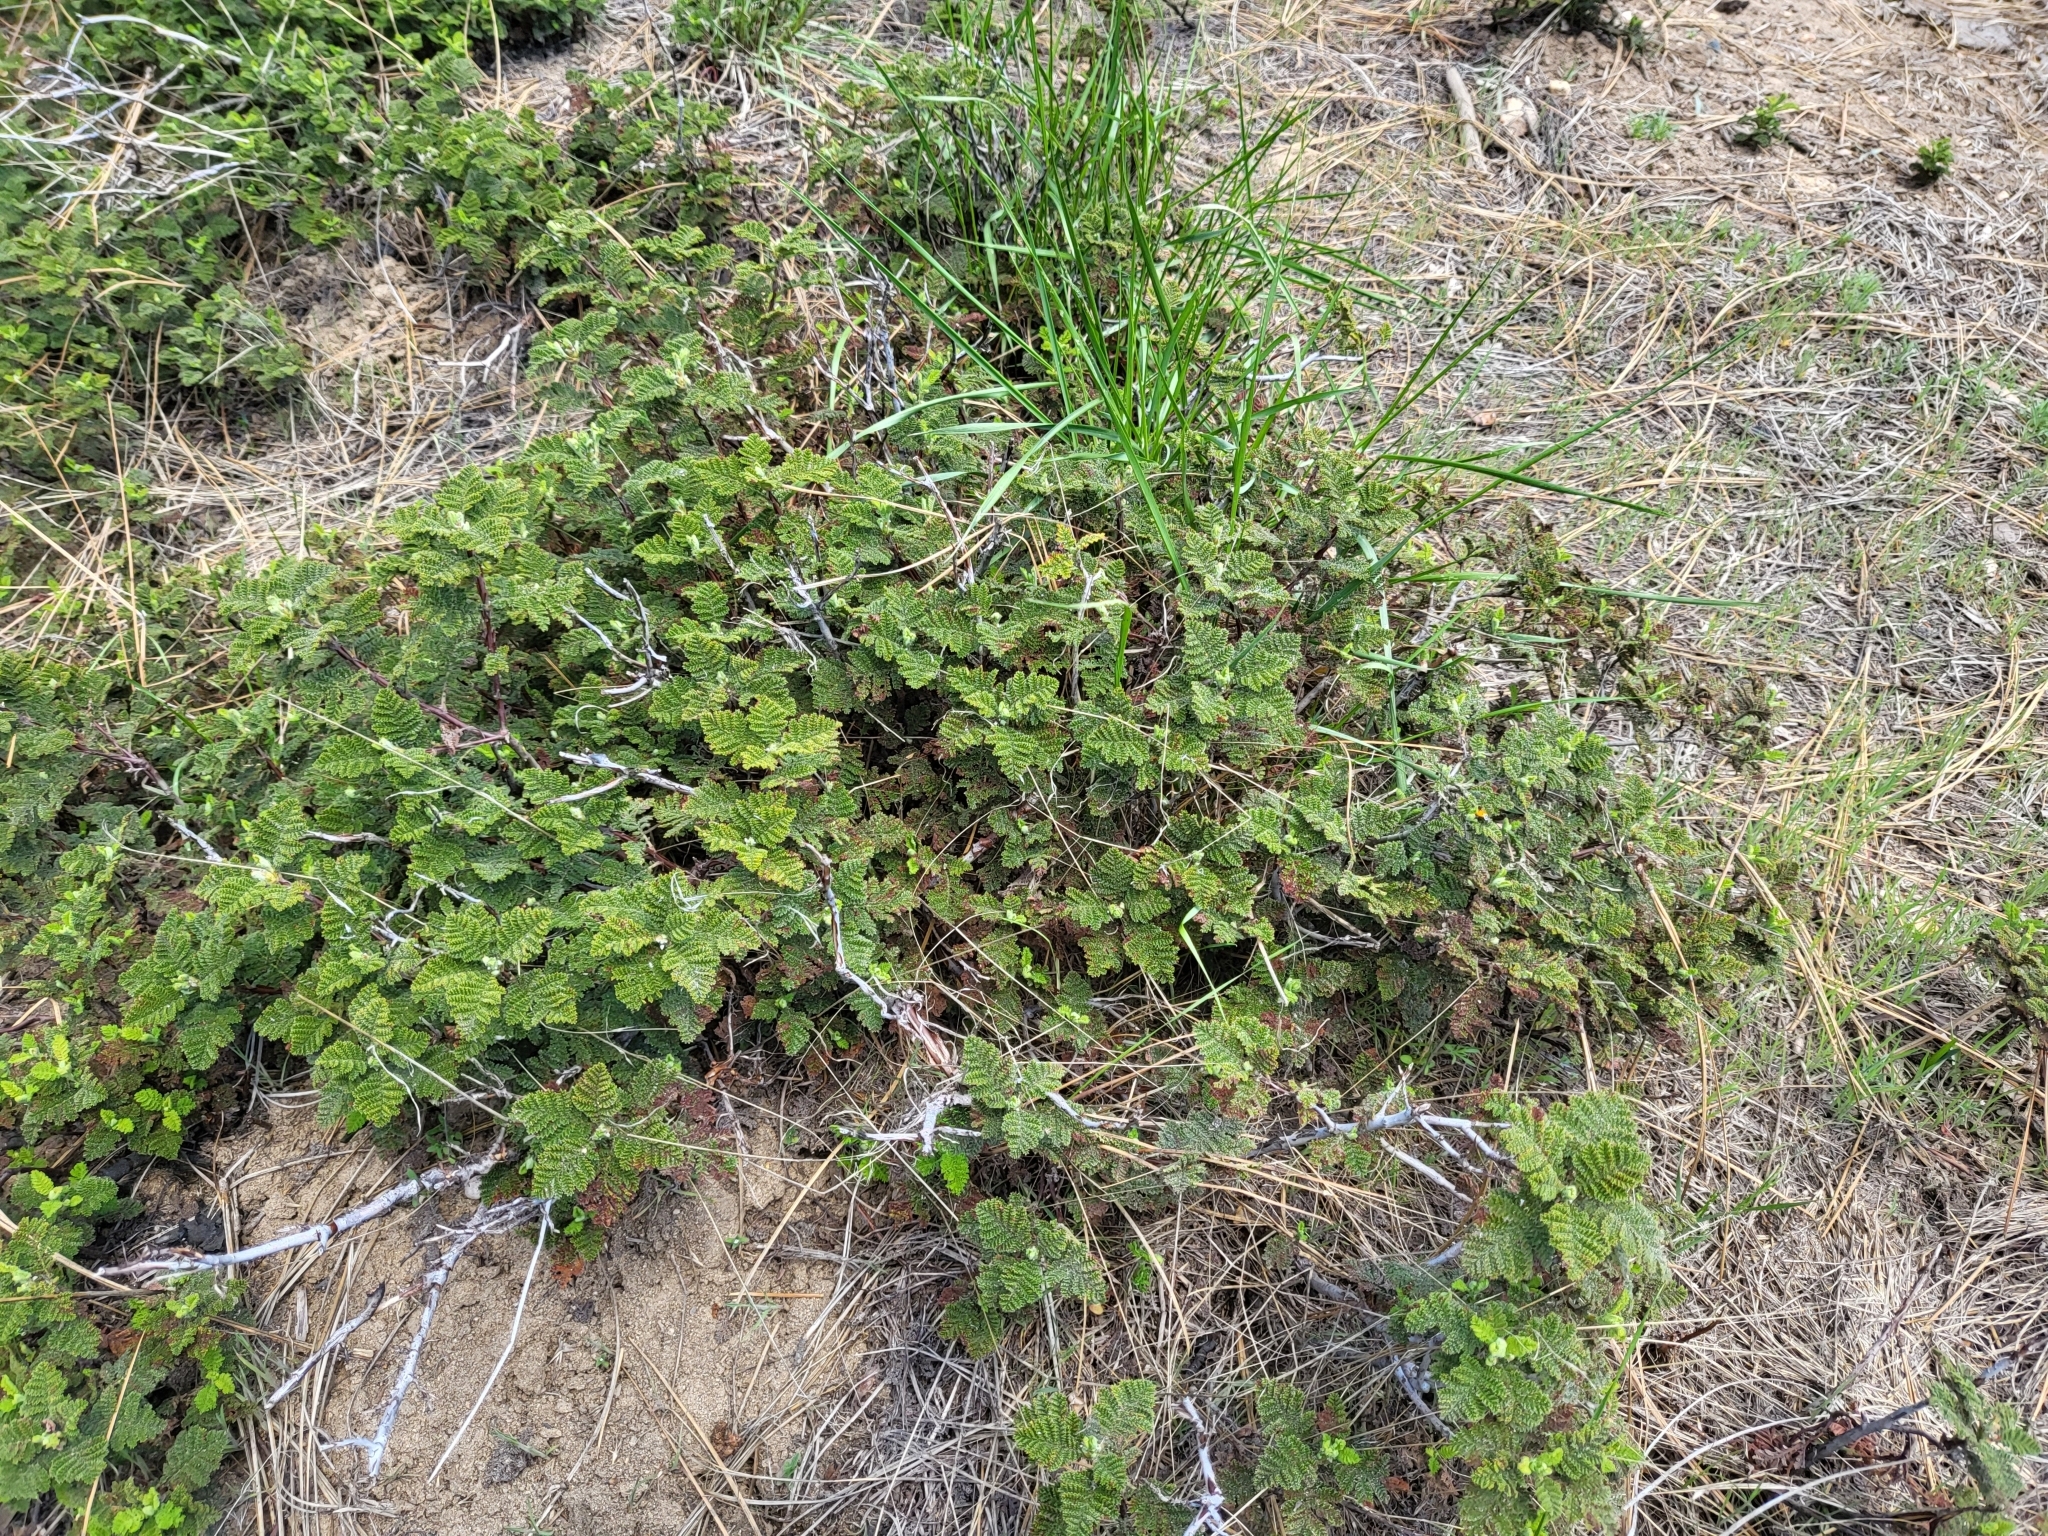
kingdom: Plantae
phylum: Tracheophyta
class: Magnoliopsida
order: Rosales
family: Rosaceae
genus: Chamaebatia
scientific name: Chamaebatia foliolosa
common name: Mountain misery
